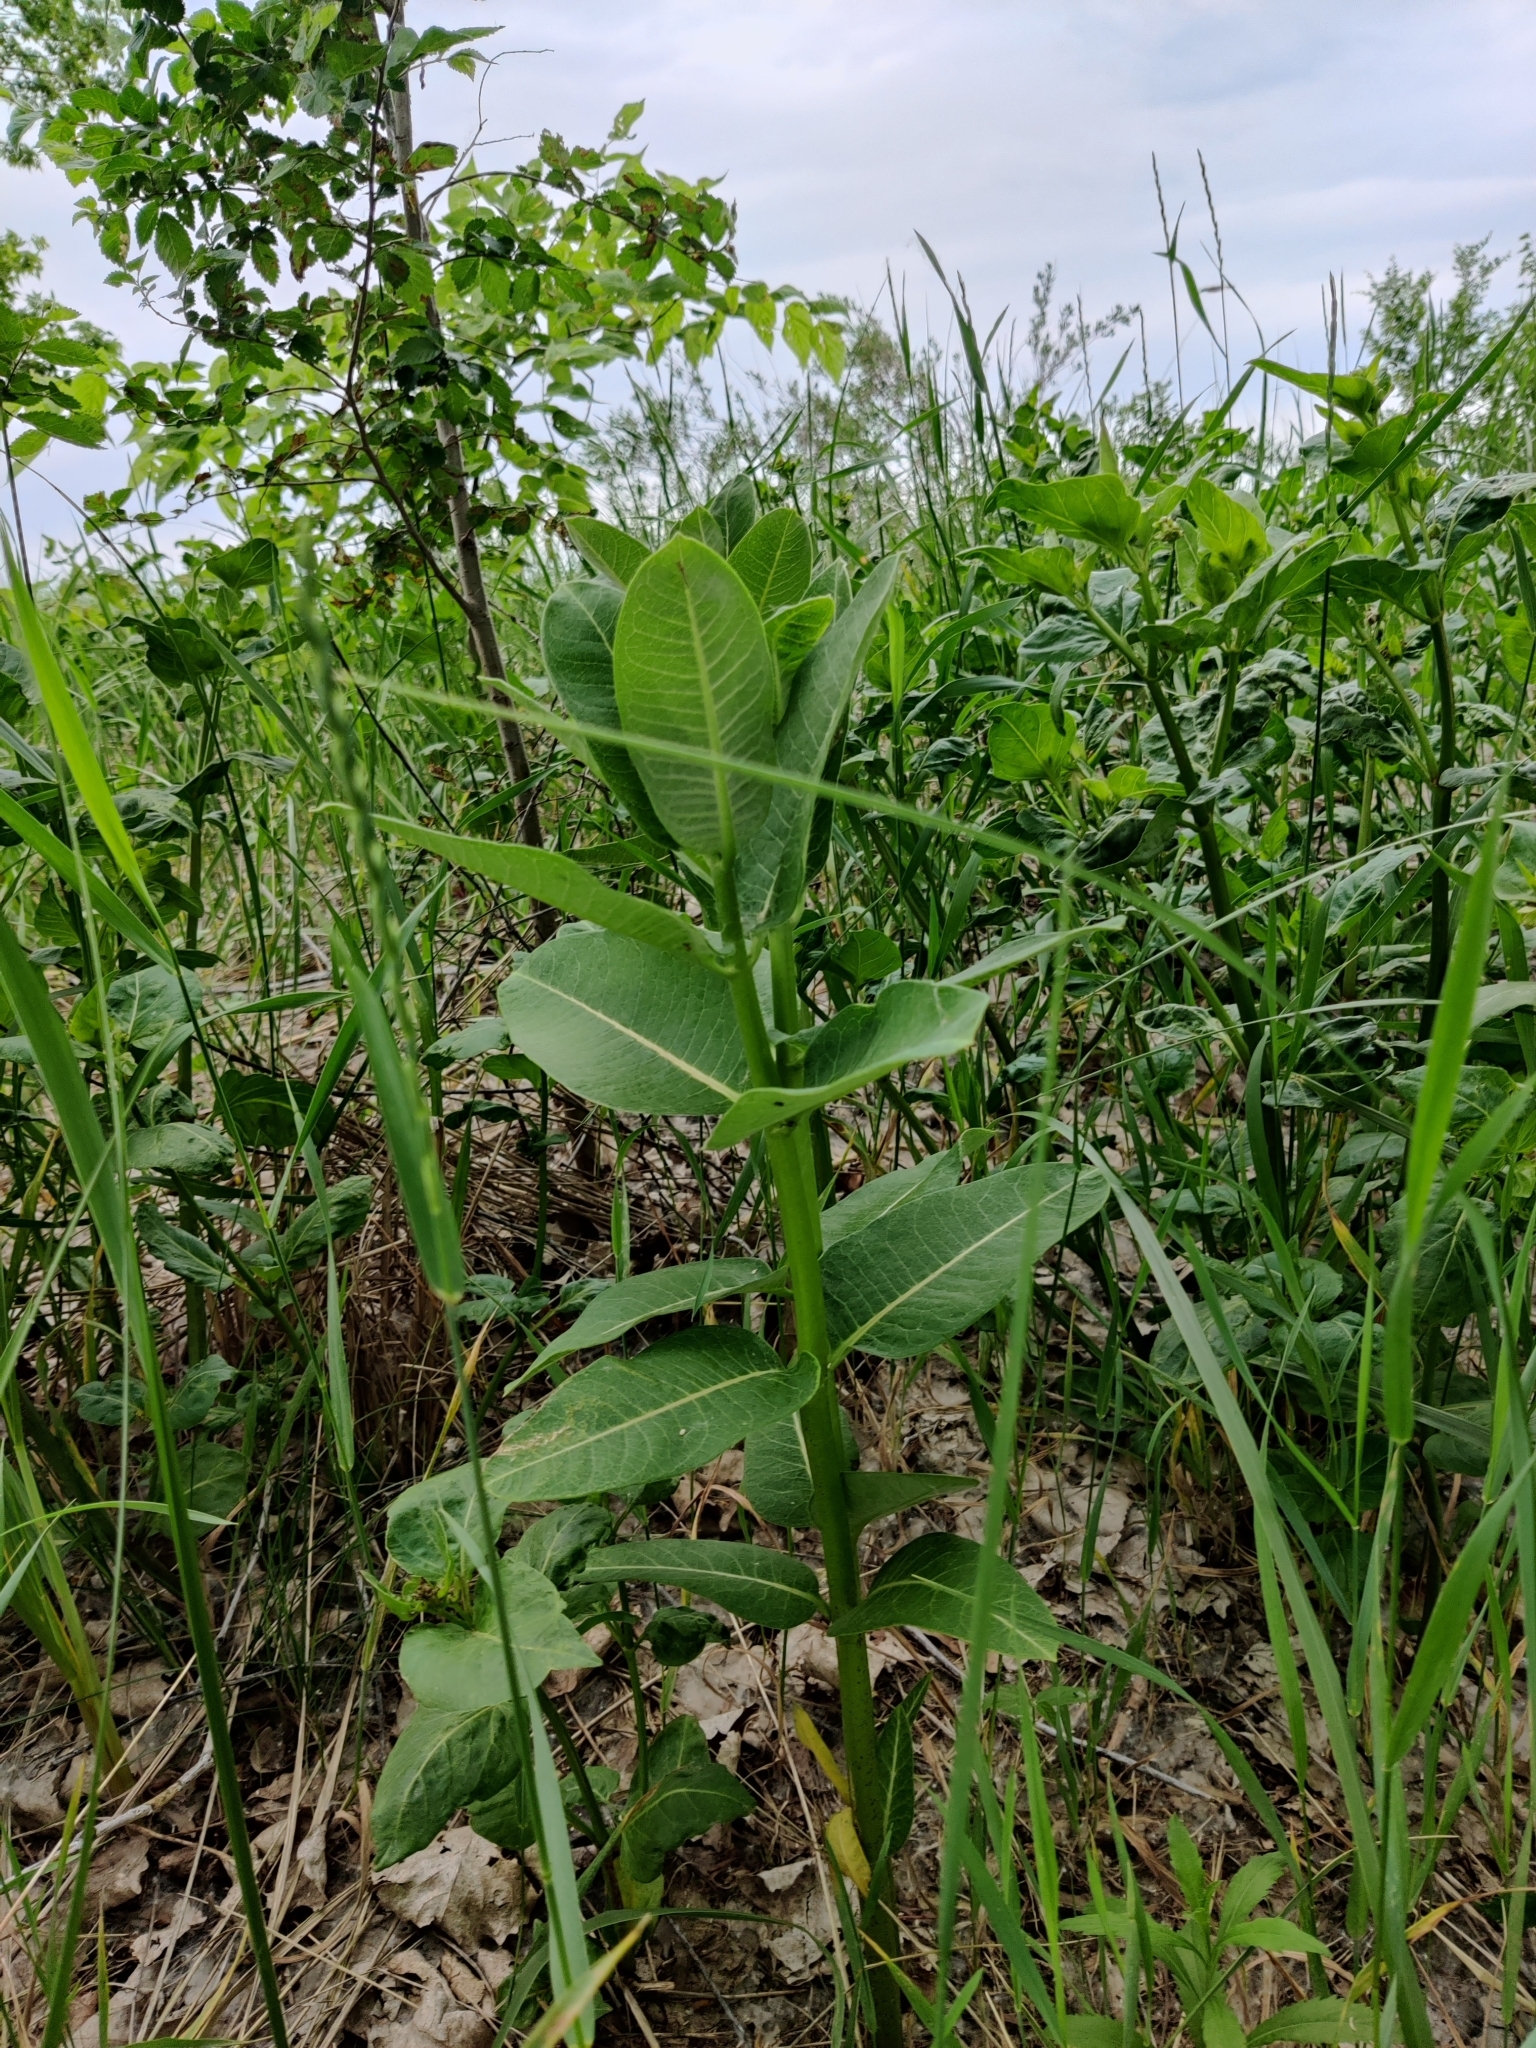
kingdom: Plantae
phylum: Tracheophyta
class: Magnoliopsida
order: Gentianales
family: Apocynaceae
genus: Asclepias
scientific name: Asclepias syriaca
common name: Common milkweed
